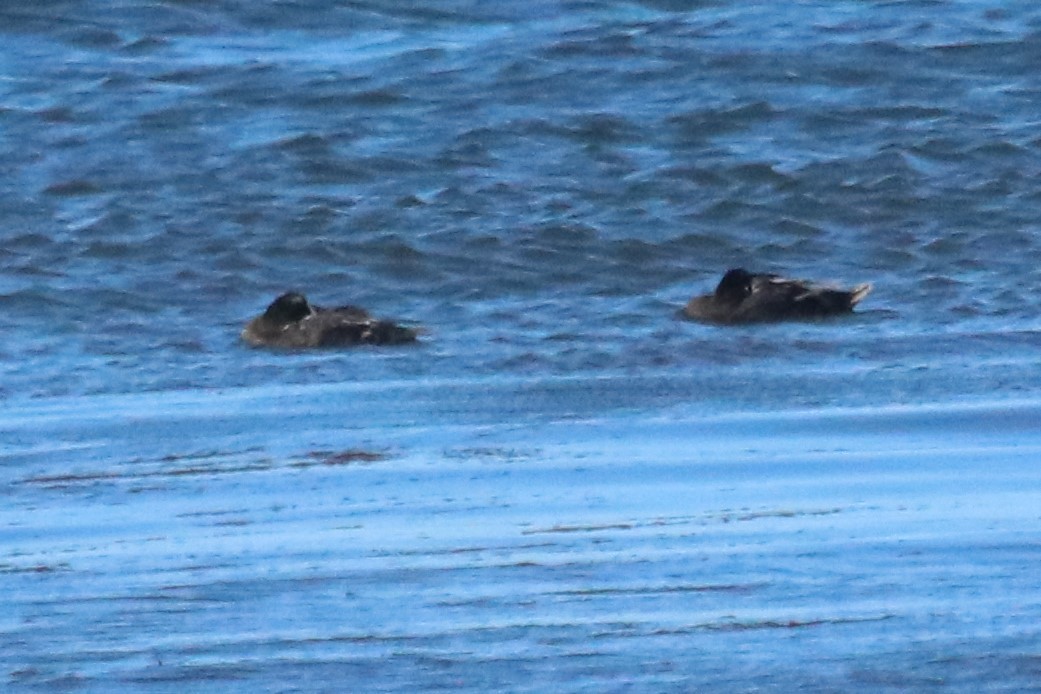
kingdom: Animalia
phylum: Chordata
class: Aves
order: Anseriformes
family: Anatidae
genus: Somateria
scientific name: Somateria mollissima
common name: Common eider
